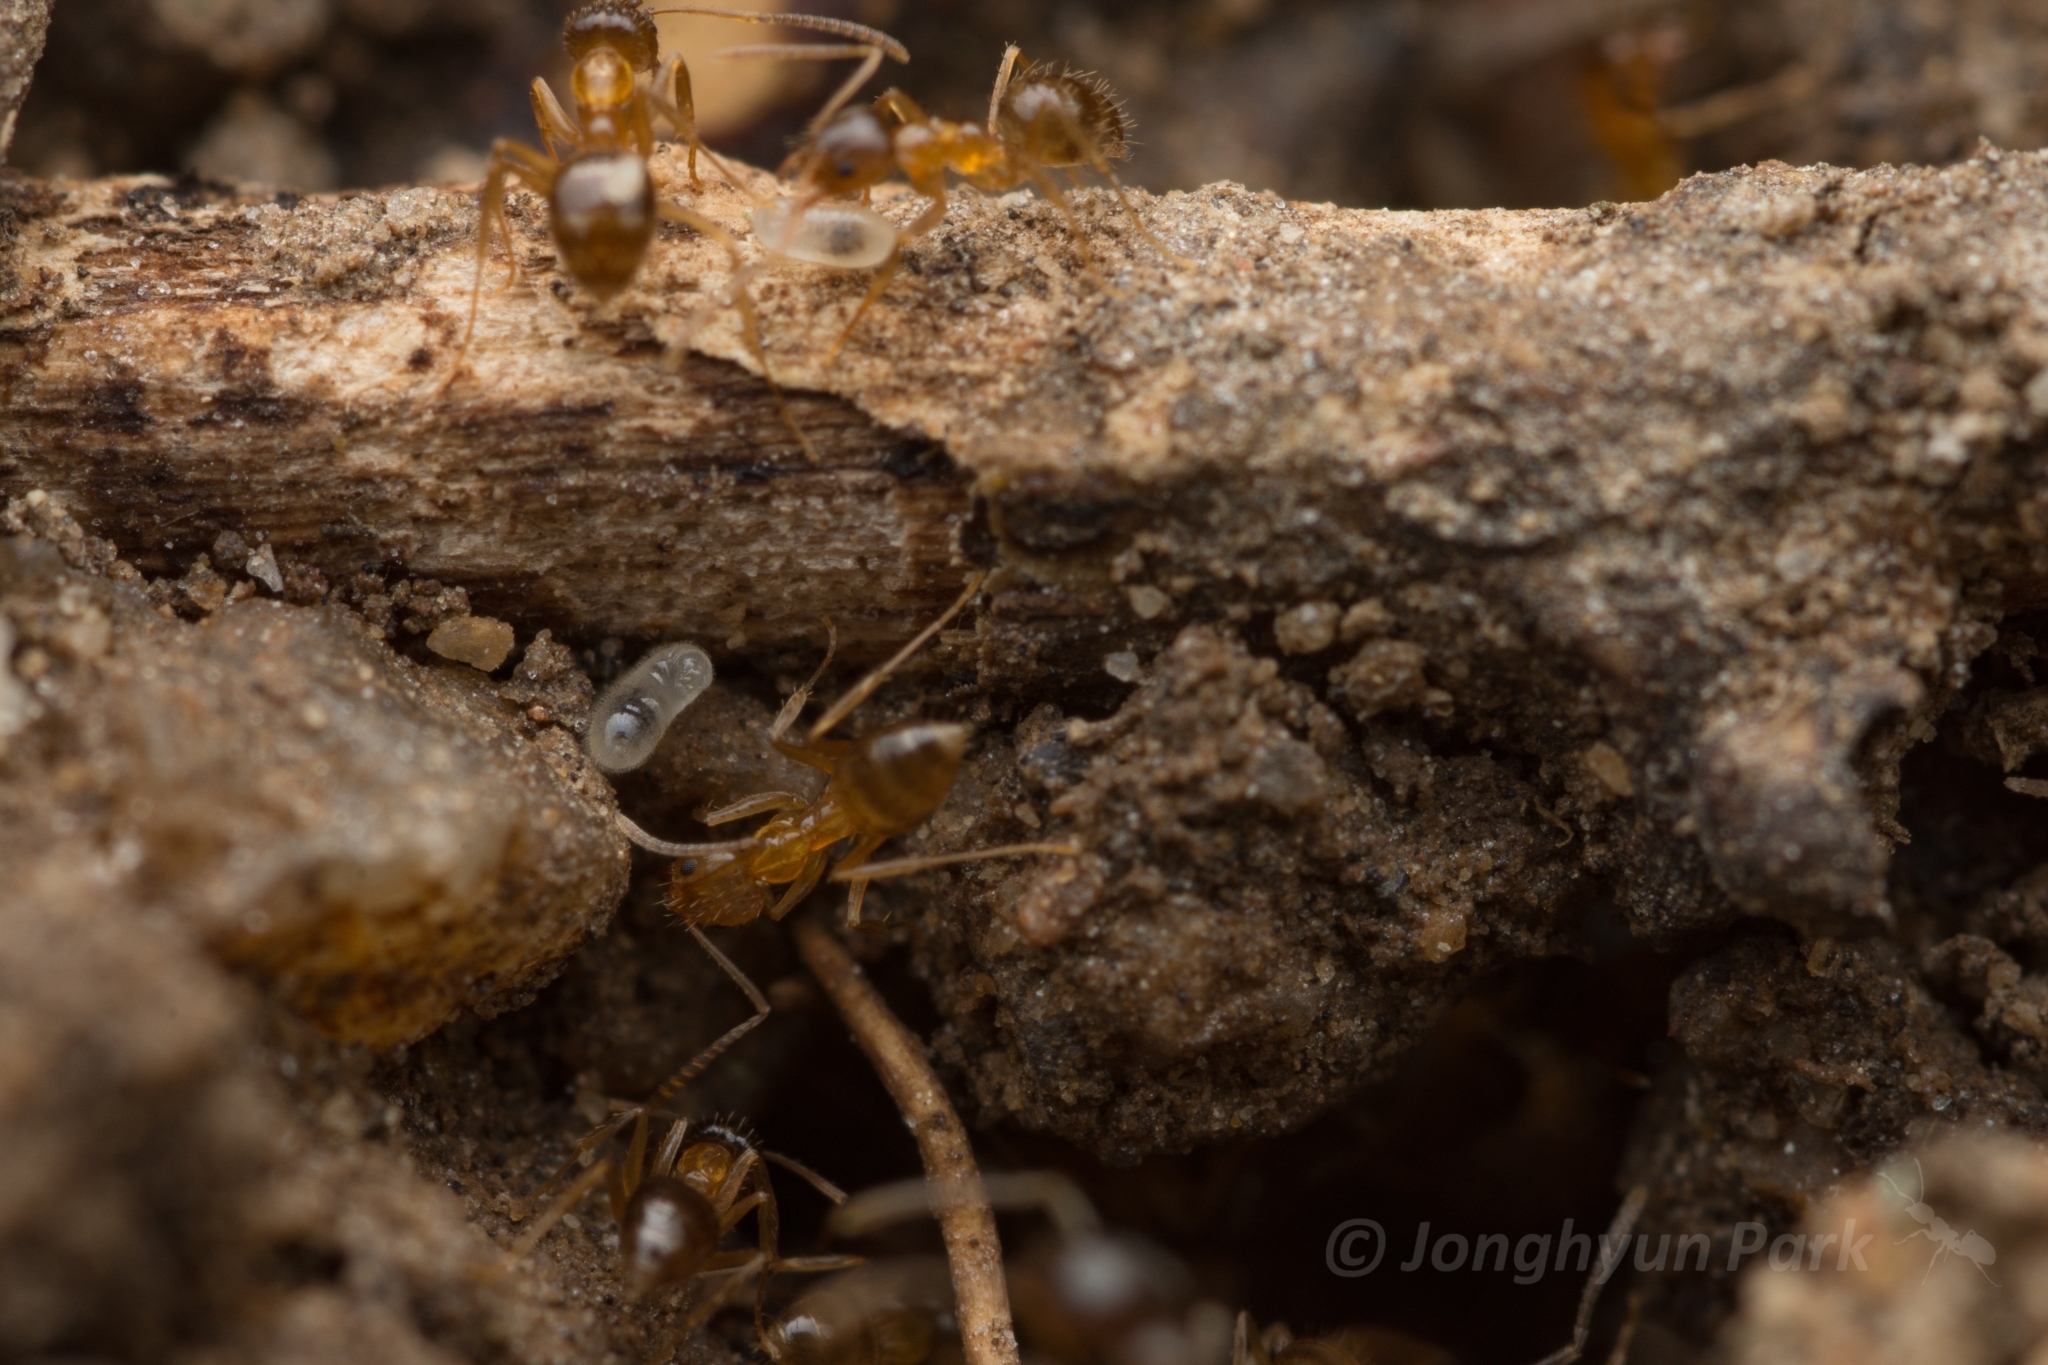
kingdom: Animalia
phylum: Arthropoda
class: Insecta
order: Hymenoptera
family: Formicidae
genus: Paratrechina
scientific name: Paratrechina flavipes
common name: Eastern asian formicine ant
